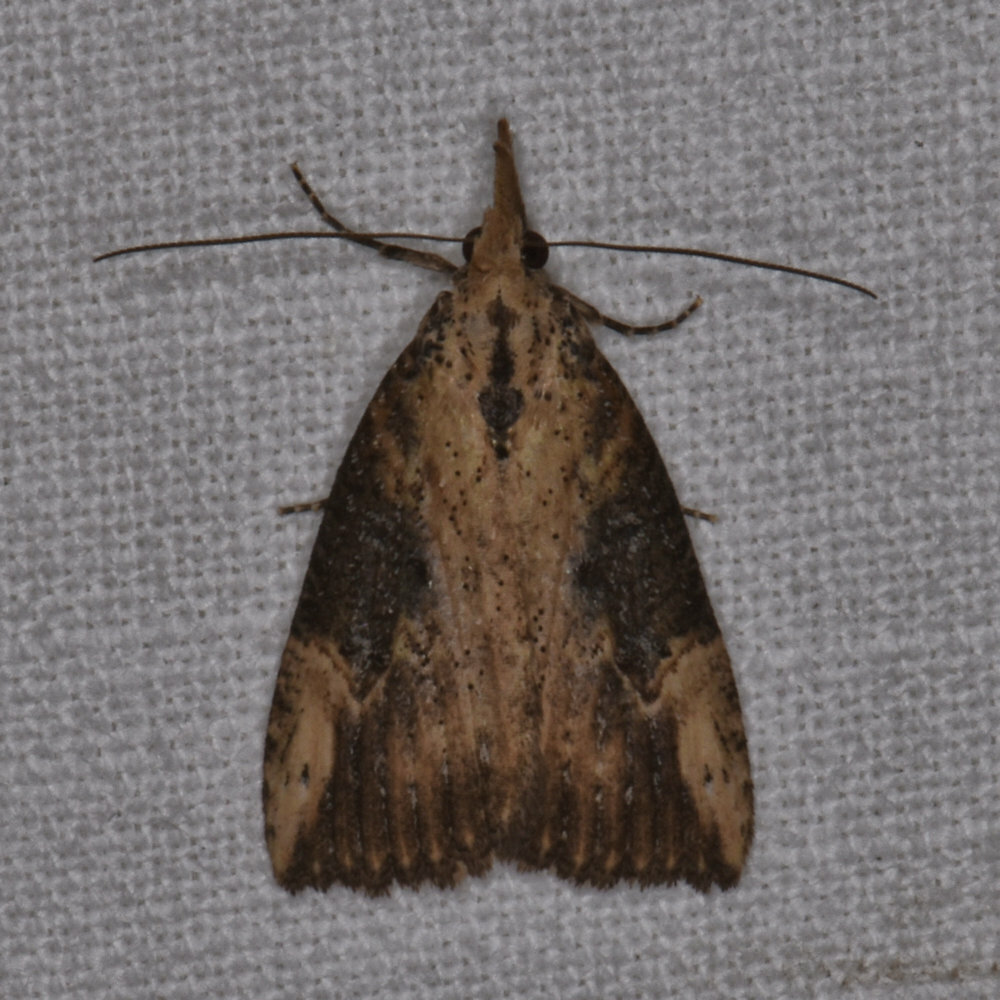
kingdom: Animalia
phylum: Arthropoda
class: Insecta
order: Lepidoptera
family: Erebidae
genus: Hypena
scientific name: Hypena humuli
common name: Hop vine snout
